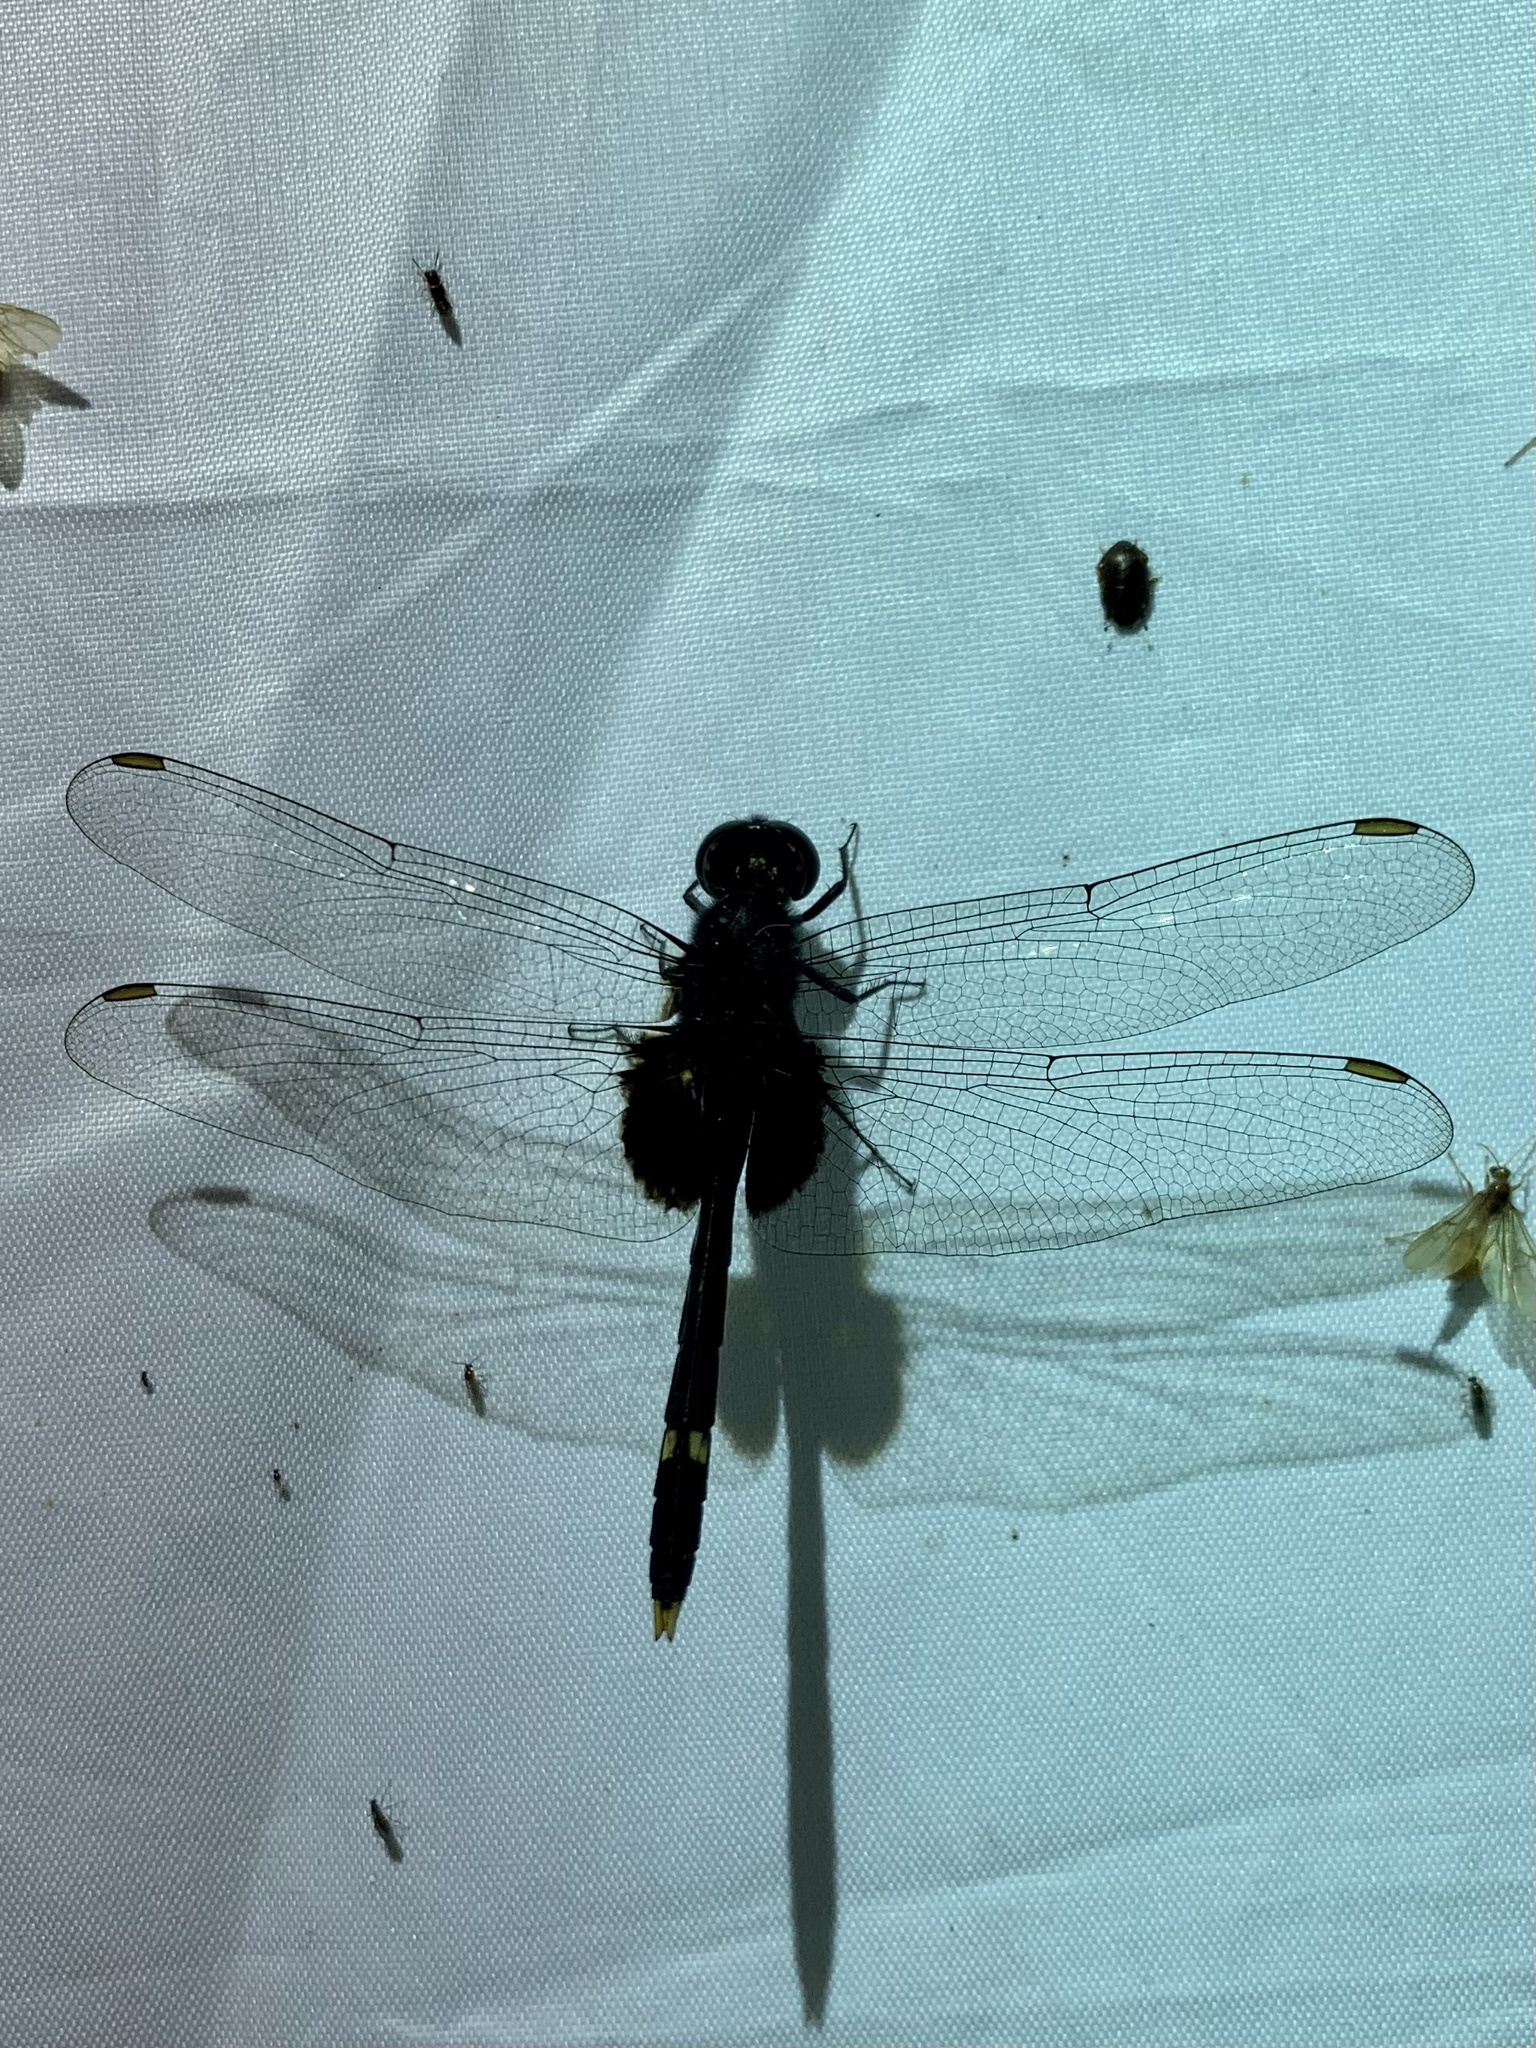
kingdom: Animalia
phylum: Arthropoda
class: Insecta
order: Odonata
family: Libellulidae
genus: Erythemis
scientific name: Erythemis attala
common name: Black pondhawk
